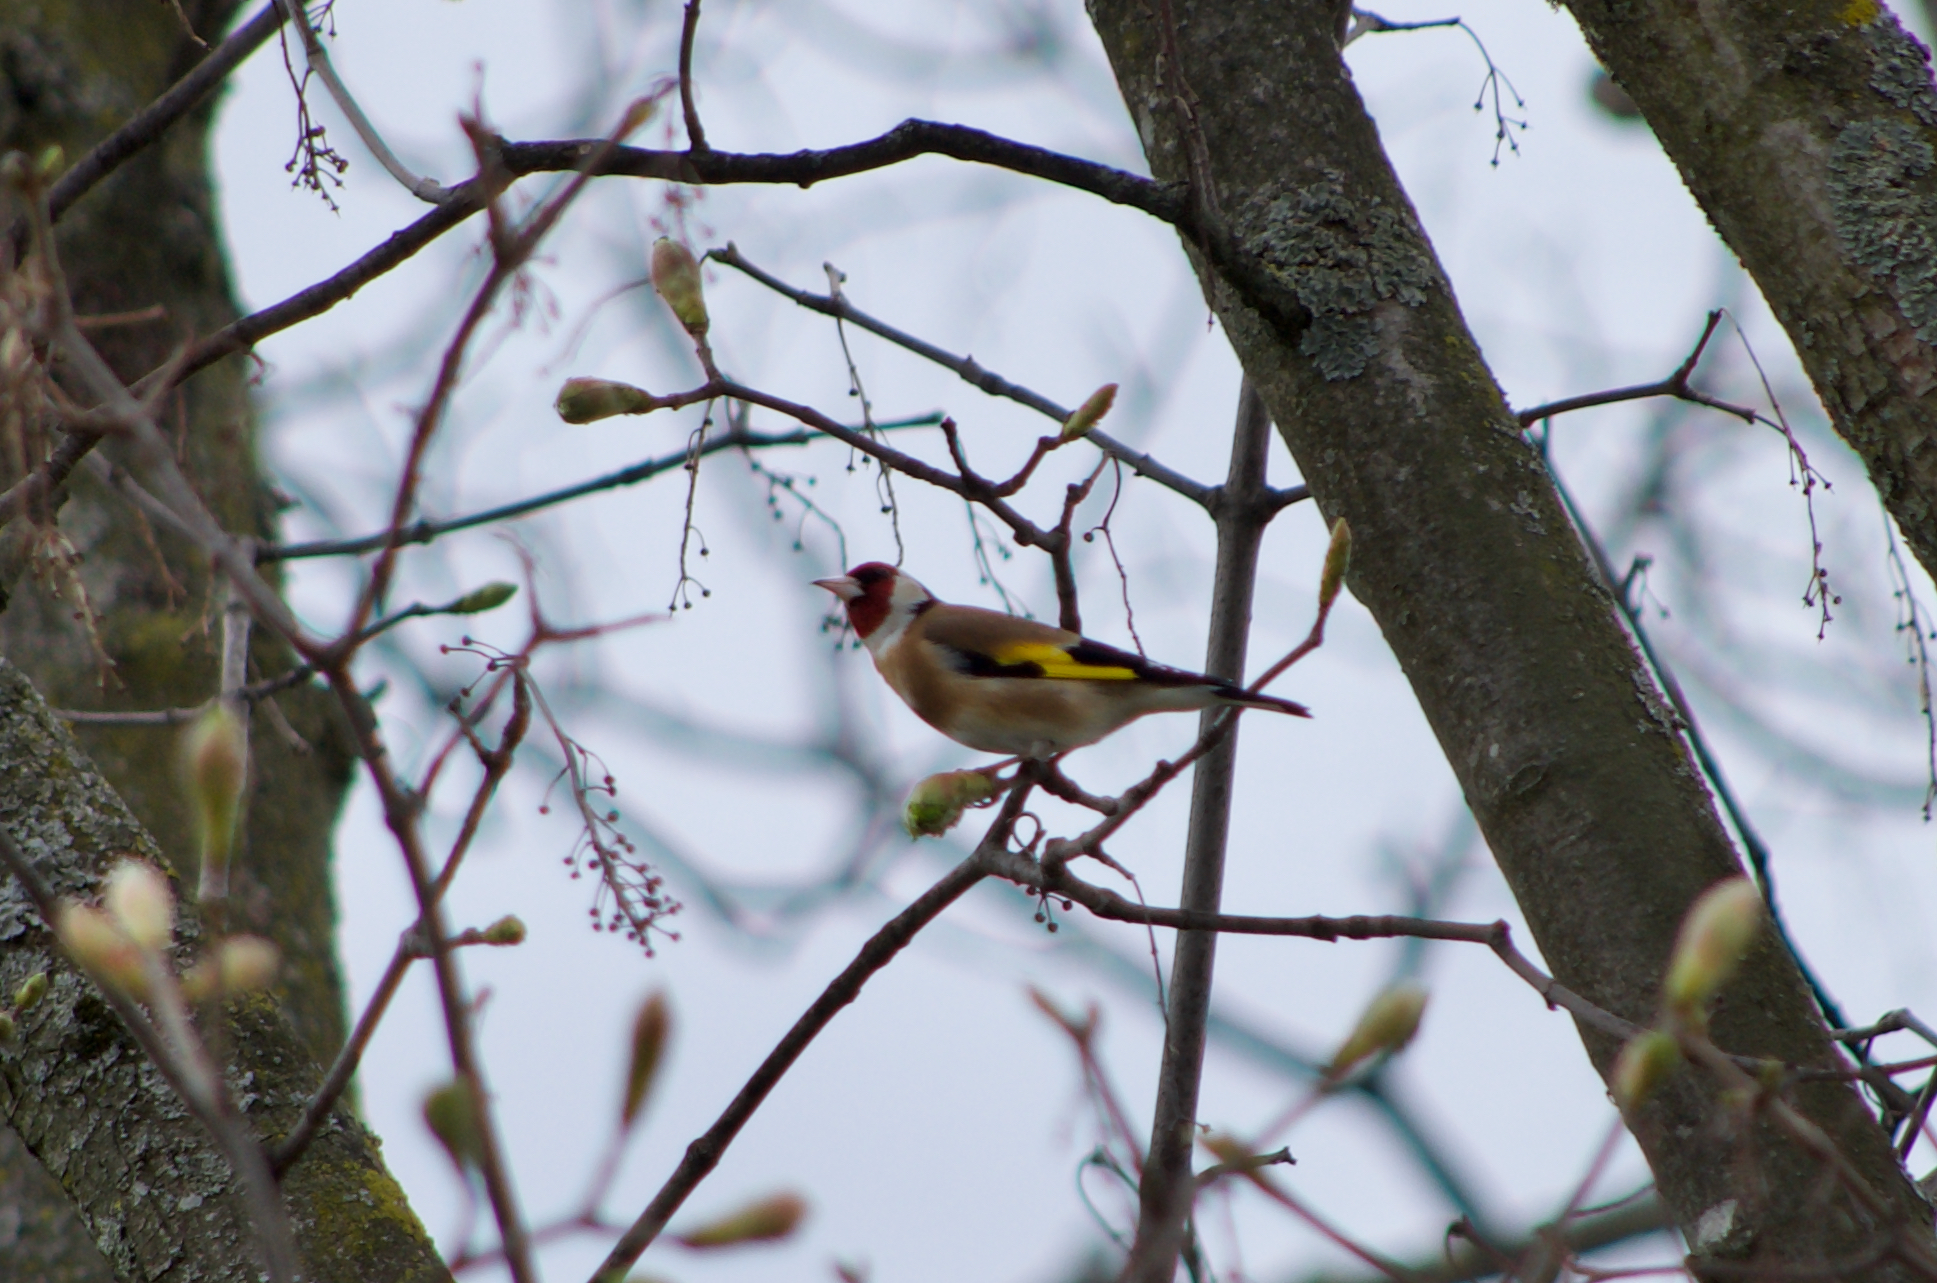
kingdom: Animalia
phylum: Chordata
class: Aves
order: Passeriformes
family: Fringillidae
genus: Carduelis
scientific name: Carduelis carduelis
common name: European goldfinch
